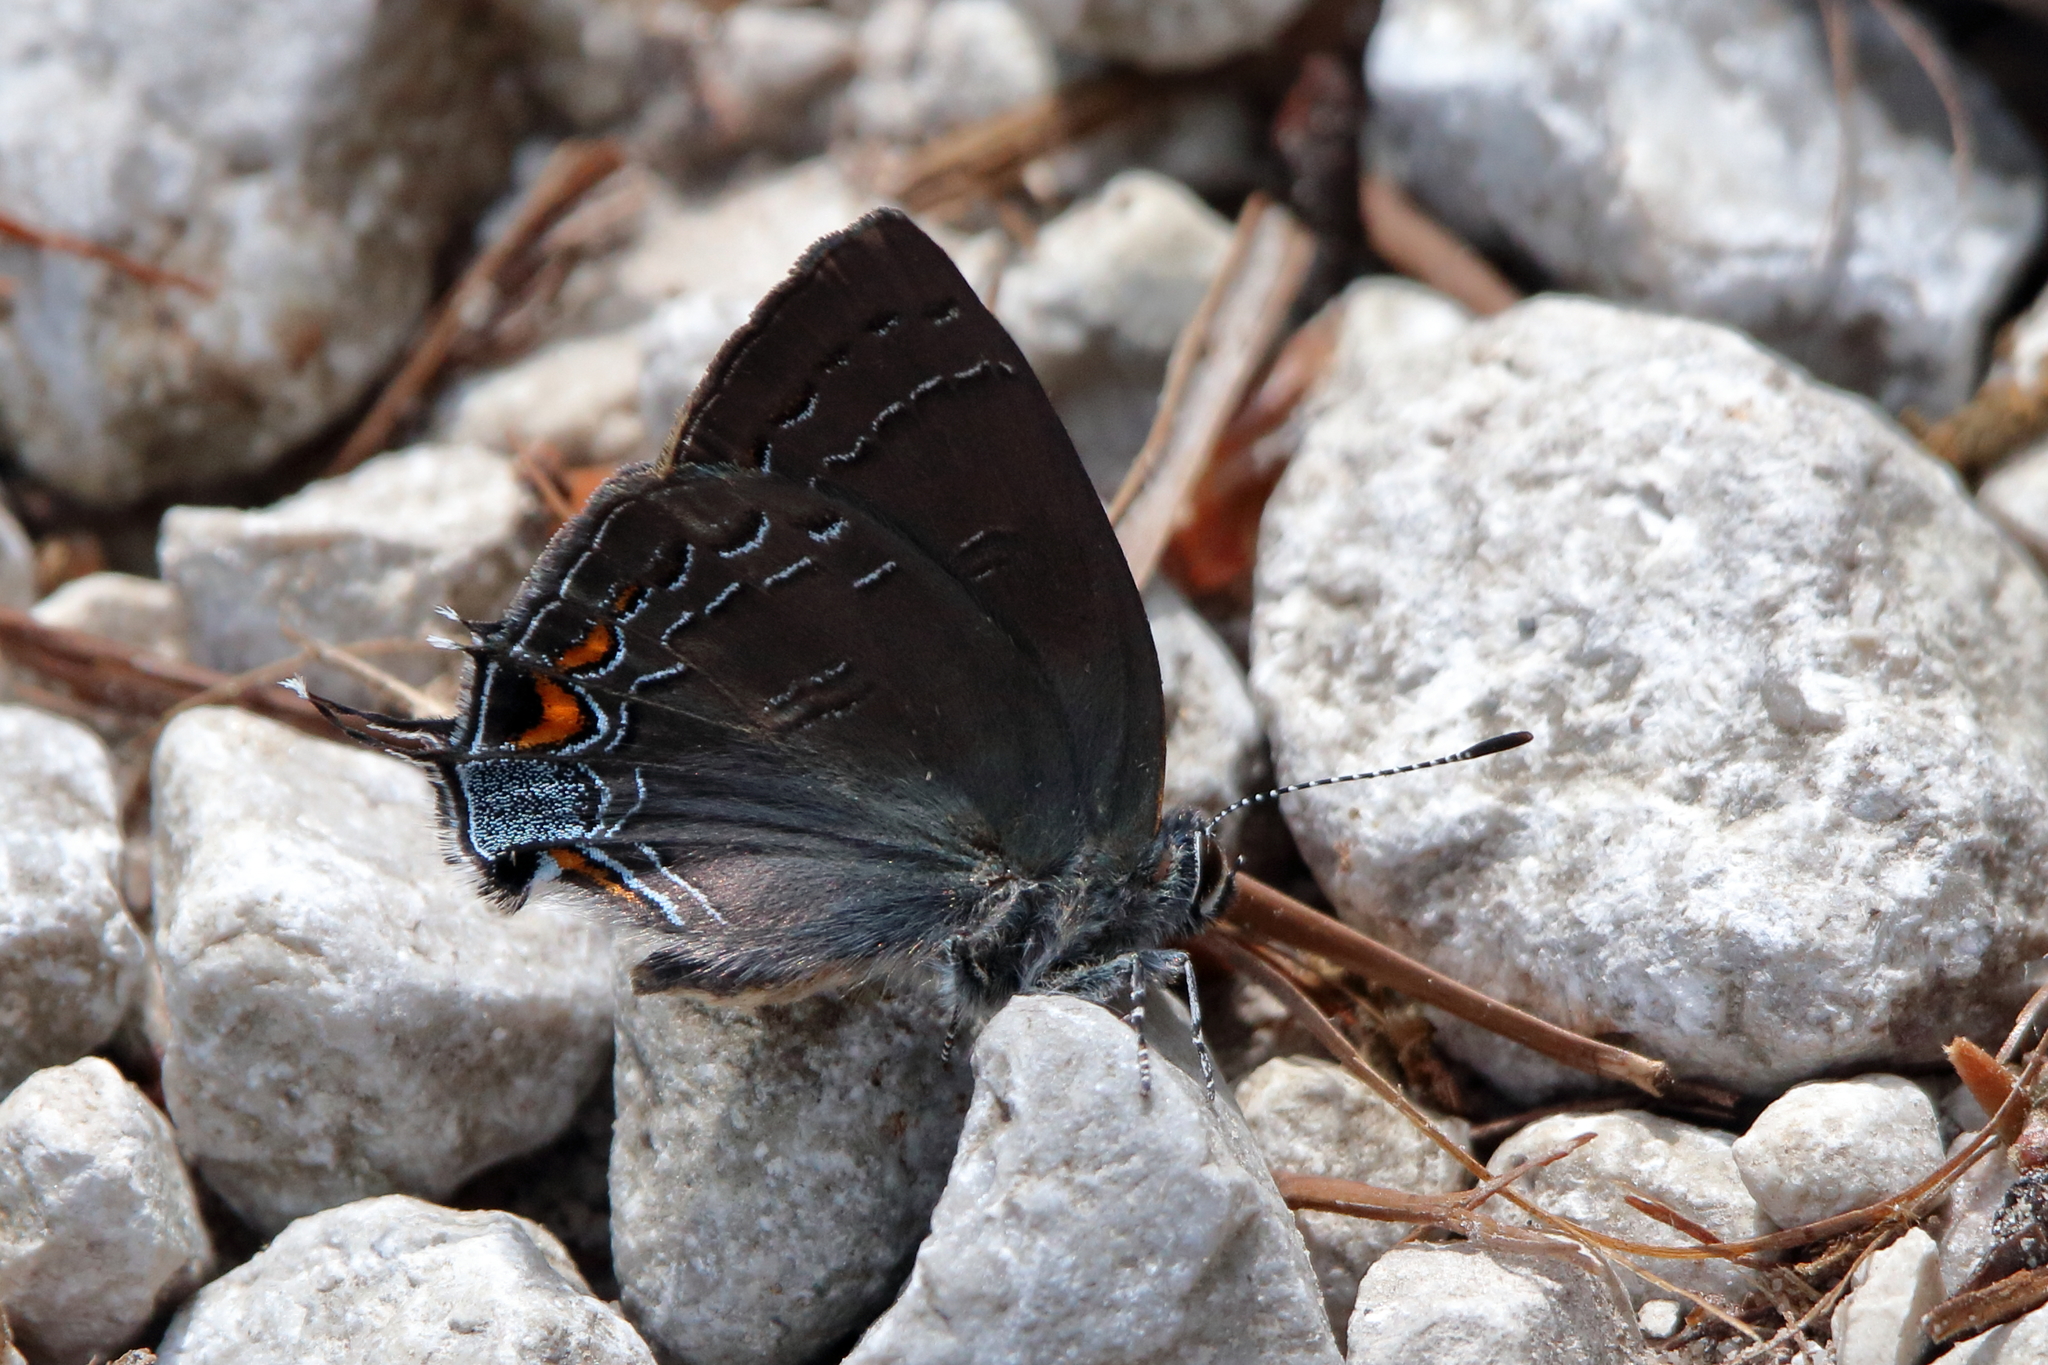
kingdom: Animalia
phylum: Arthropoda
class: Insecta
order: Lepidoptera
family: Lycaenidae
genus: Satyrium
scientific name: Satyrium calanus
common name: Banded hairstreak
